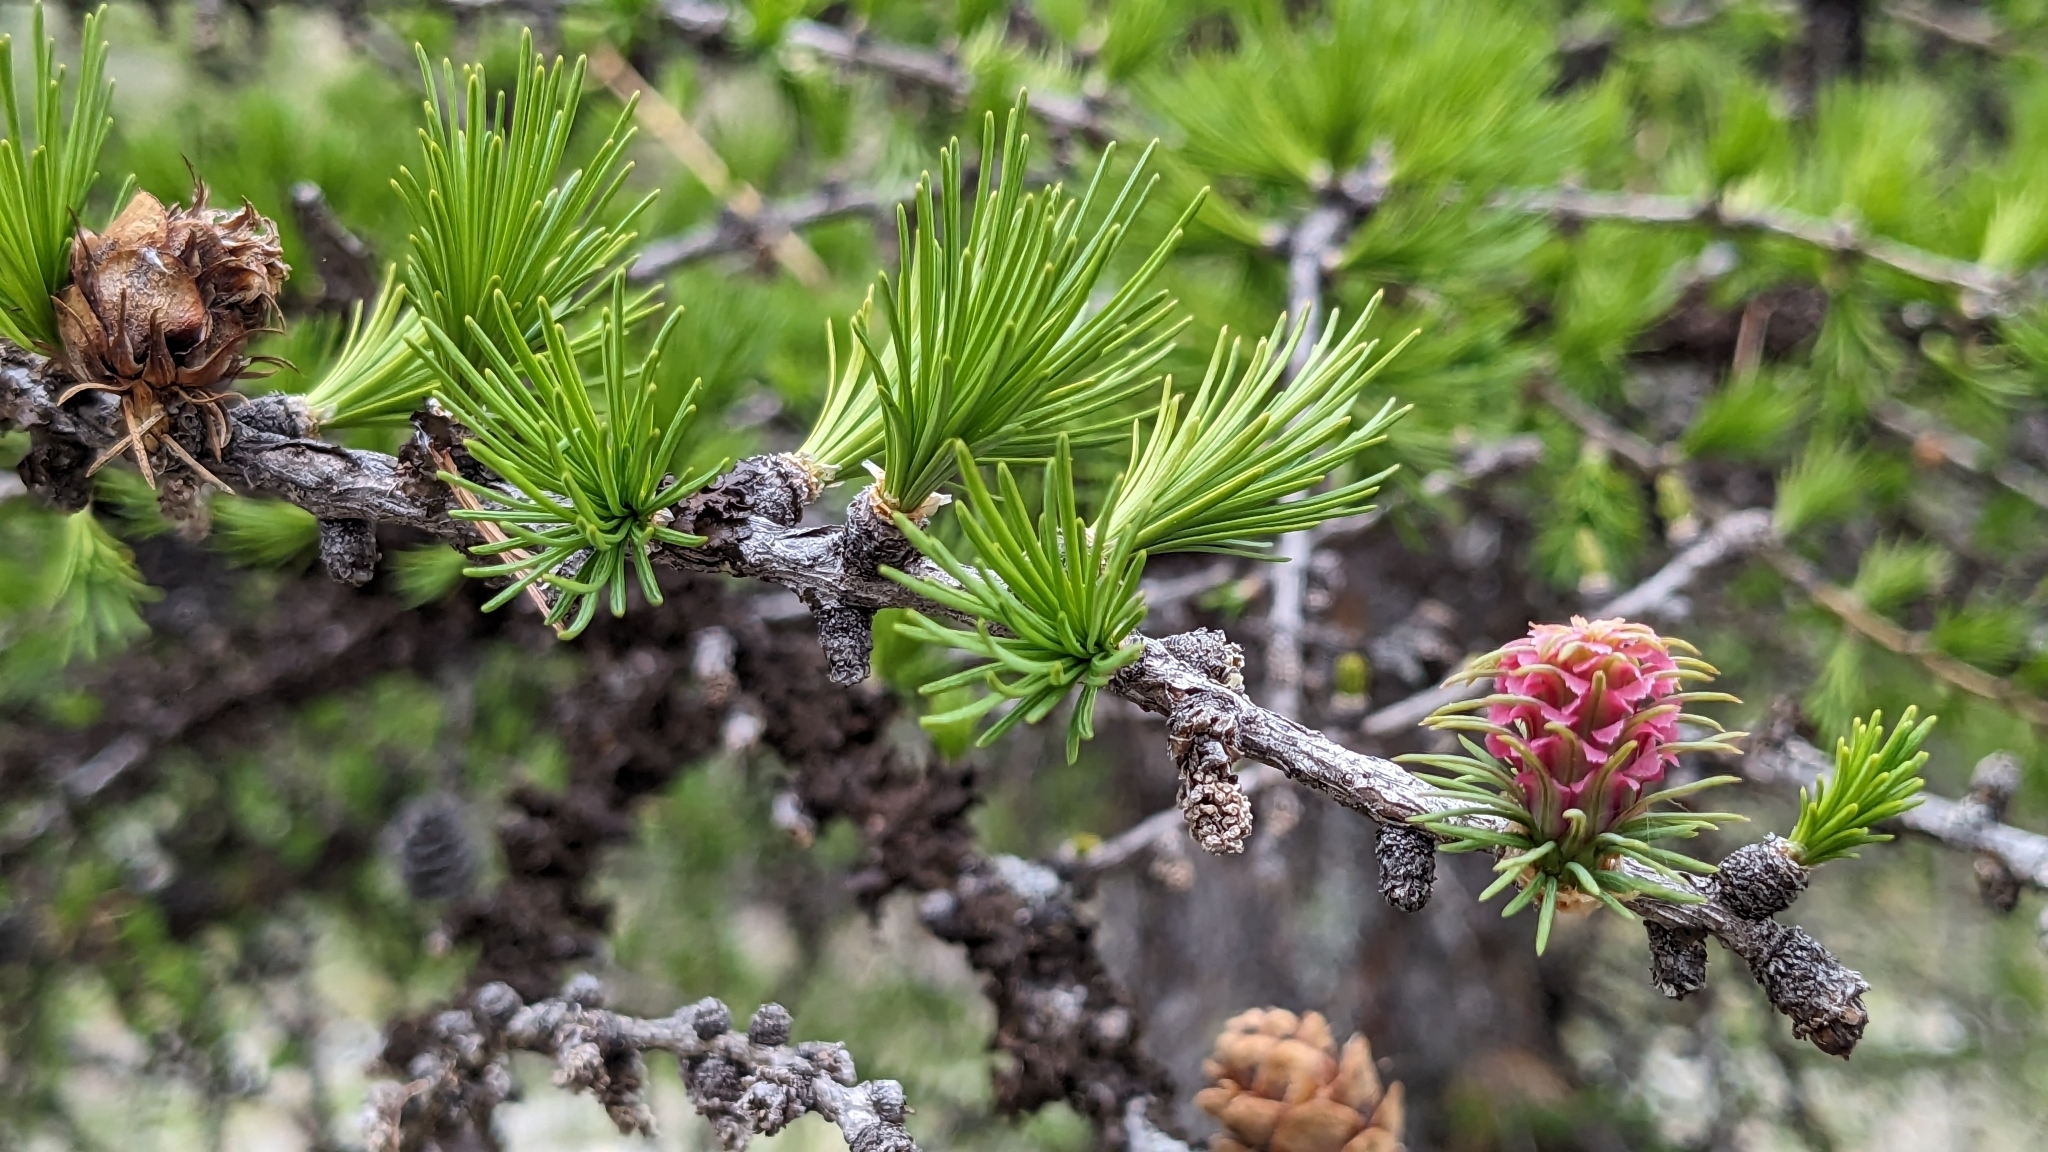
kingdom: Plantae
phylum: Tracheophyta
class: Pinopsida
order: Pinales
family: Pinaceae
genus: Larix
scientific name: Larix decidua
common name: European larch
